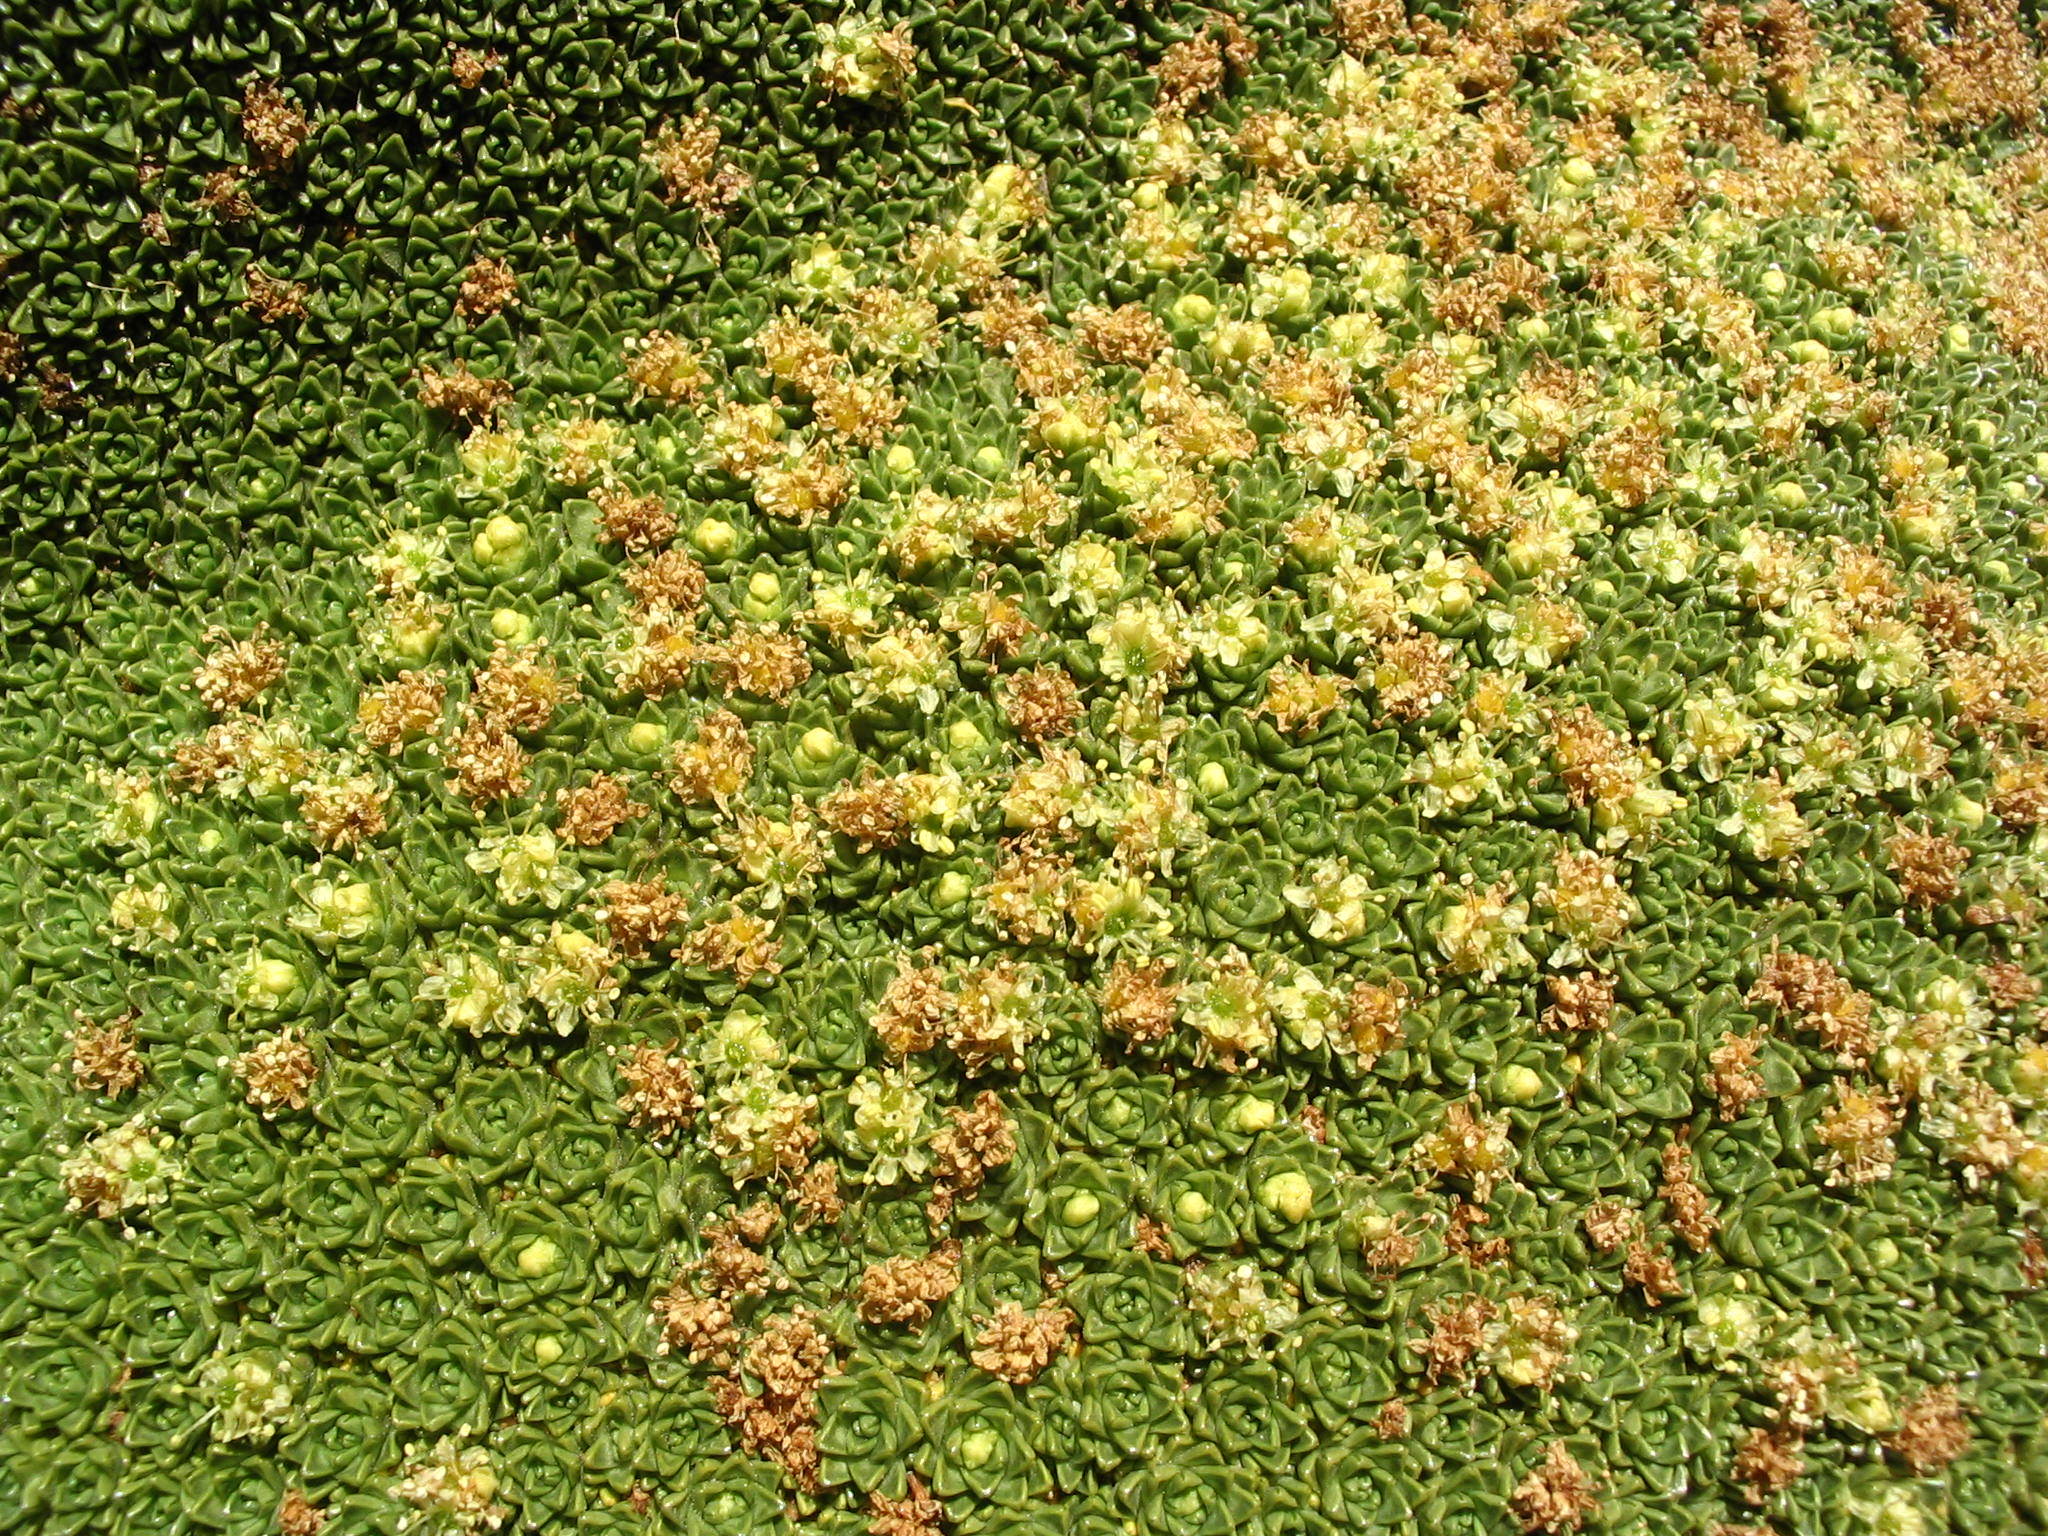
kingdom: Plantae
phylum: Tracheophyta
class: Magnoliopsida
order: Apiales
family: Apiaceae
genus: Azorella
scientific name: Azorella compacta
